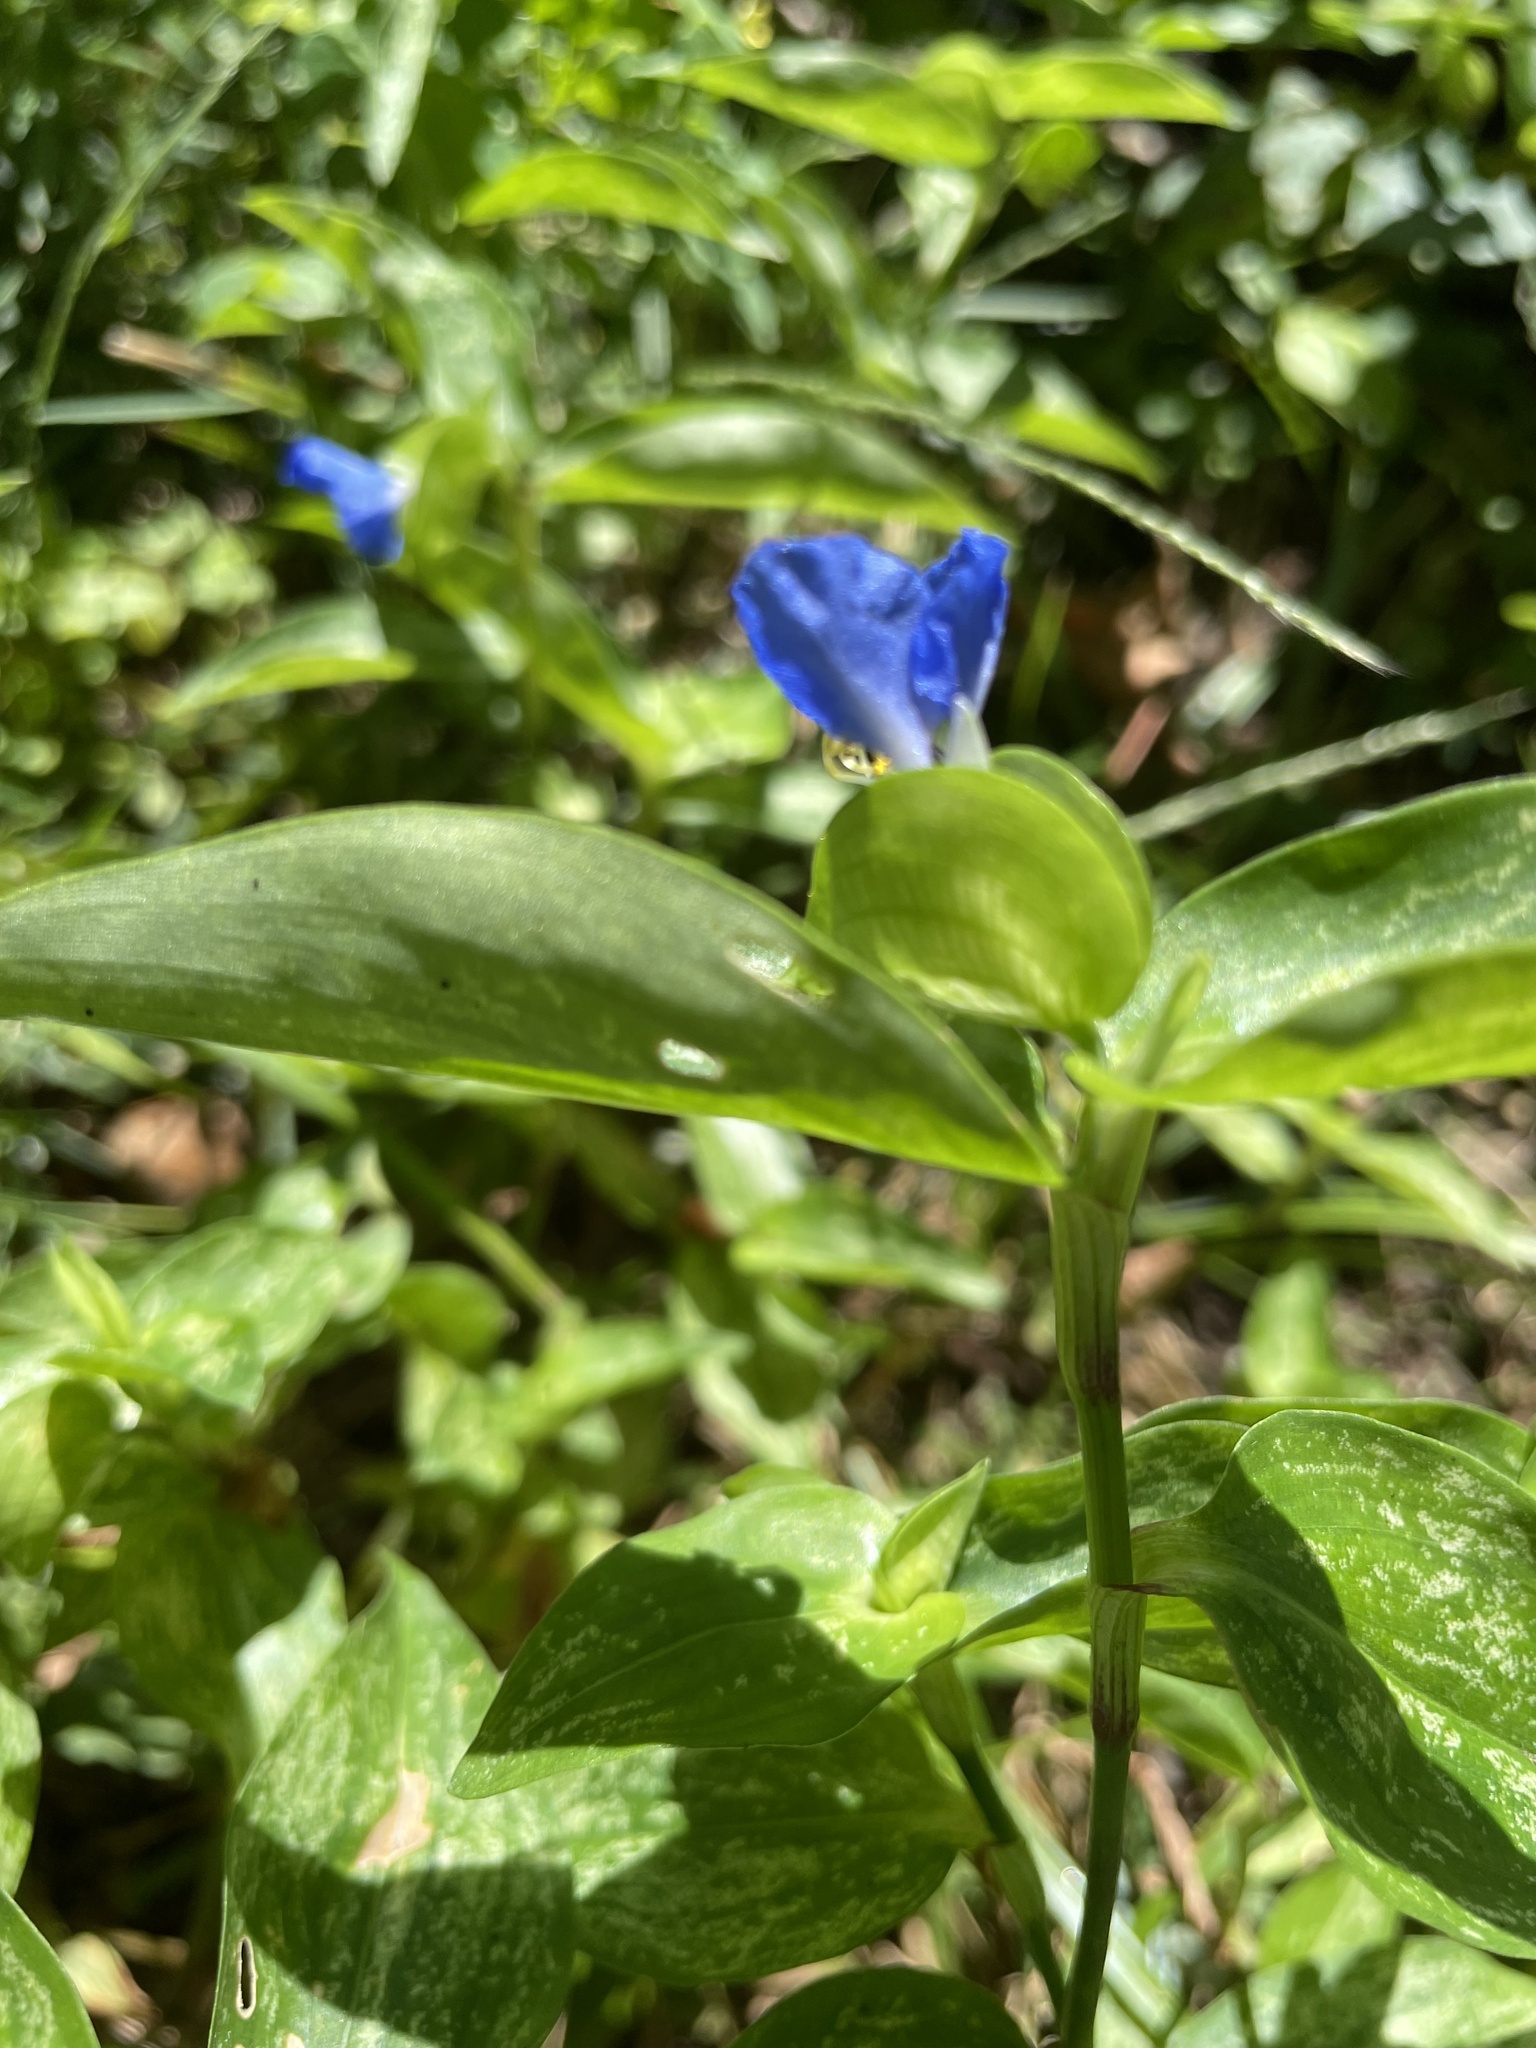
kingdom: Plantae
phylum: Tracheophyta
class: Liliopsida
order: Commelinales
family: Commelinaceae
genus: Commelina
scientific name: Commelina communis
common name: Asiatic dayflower
